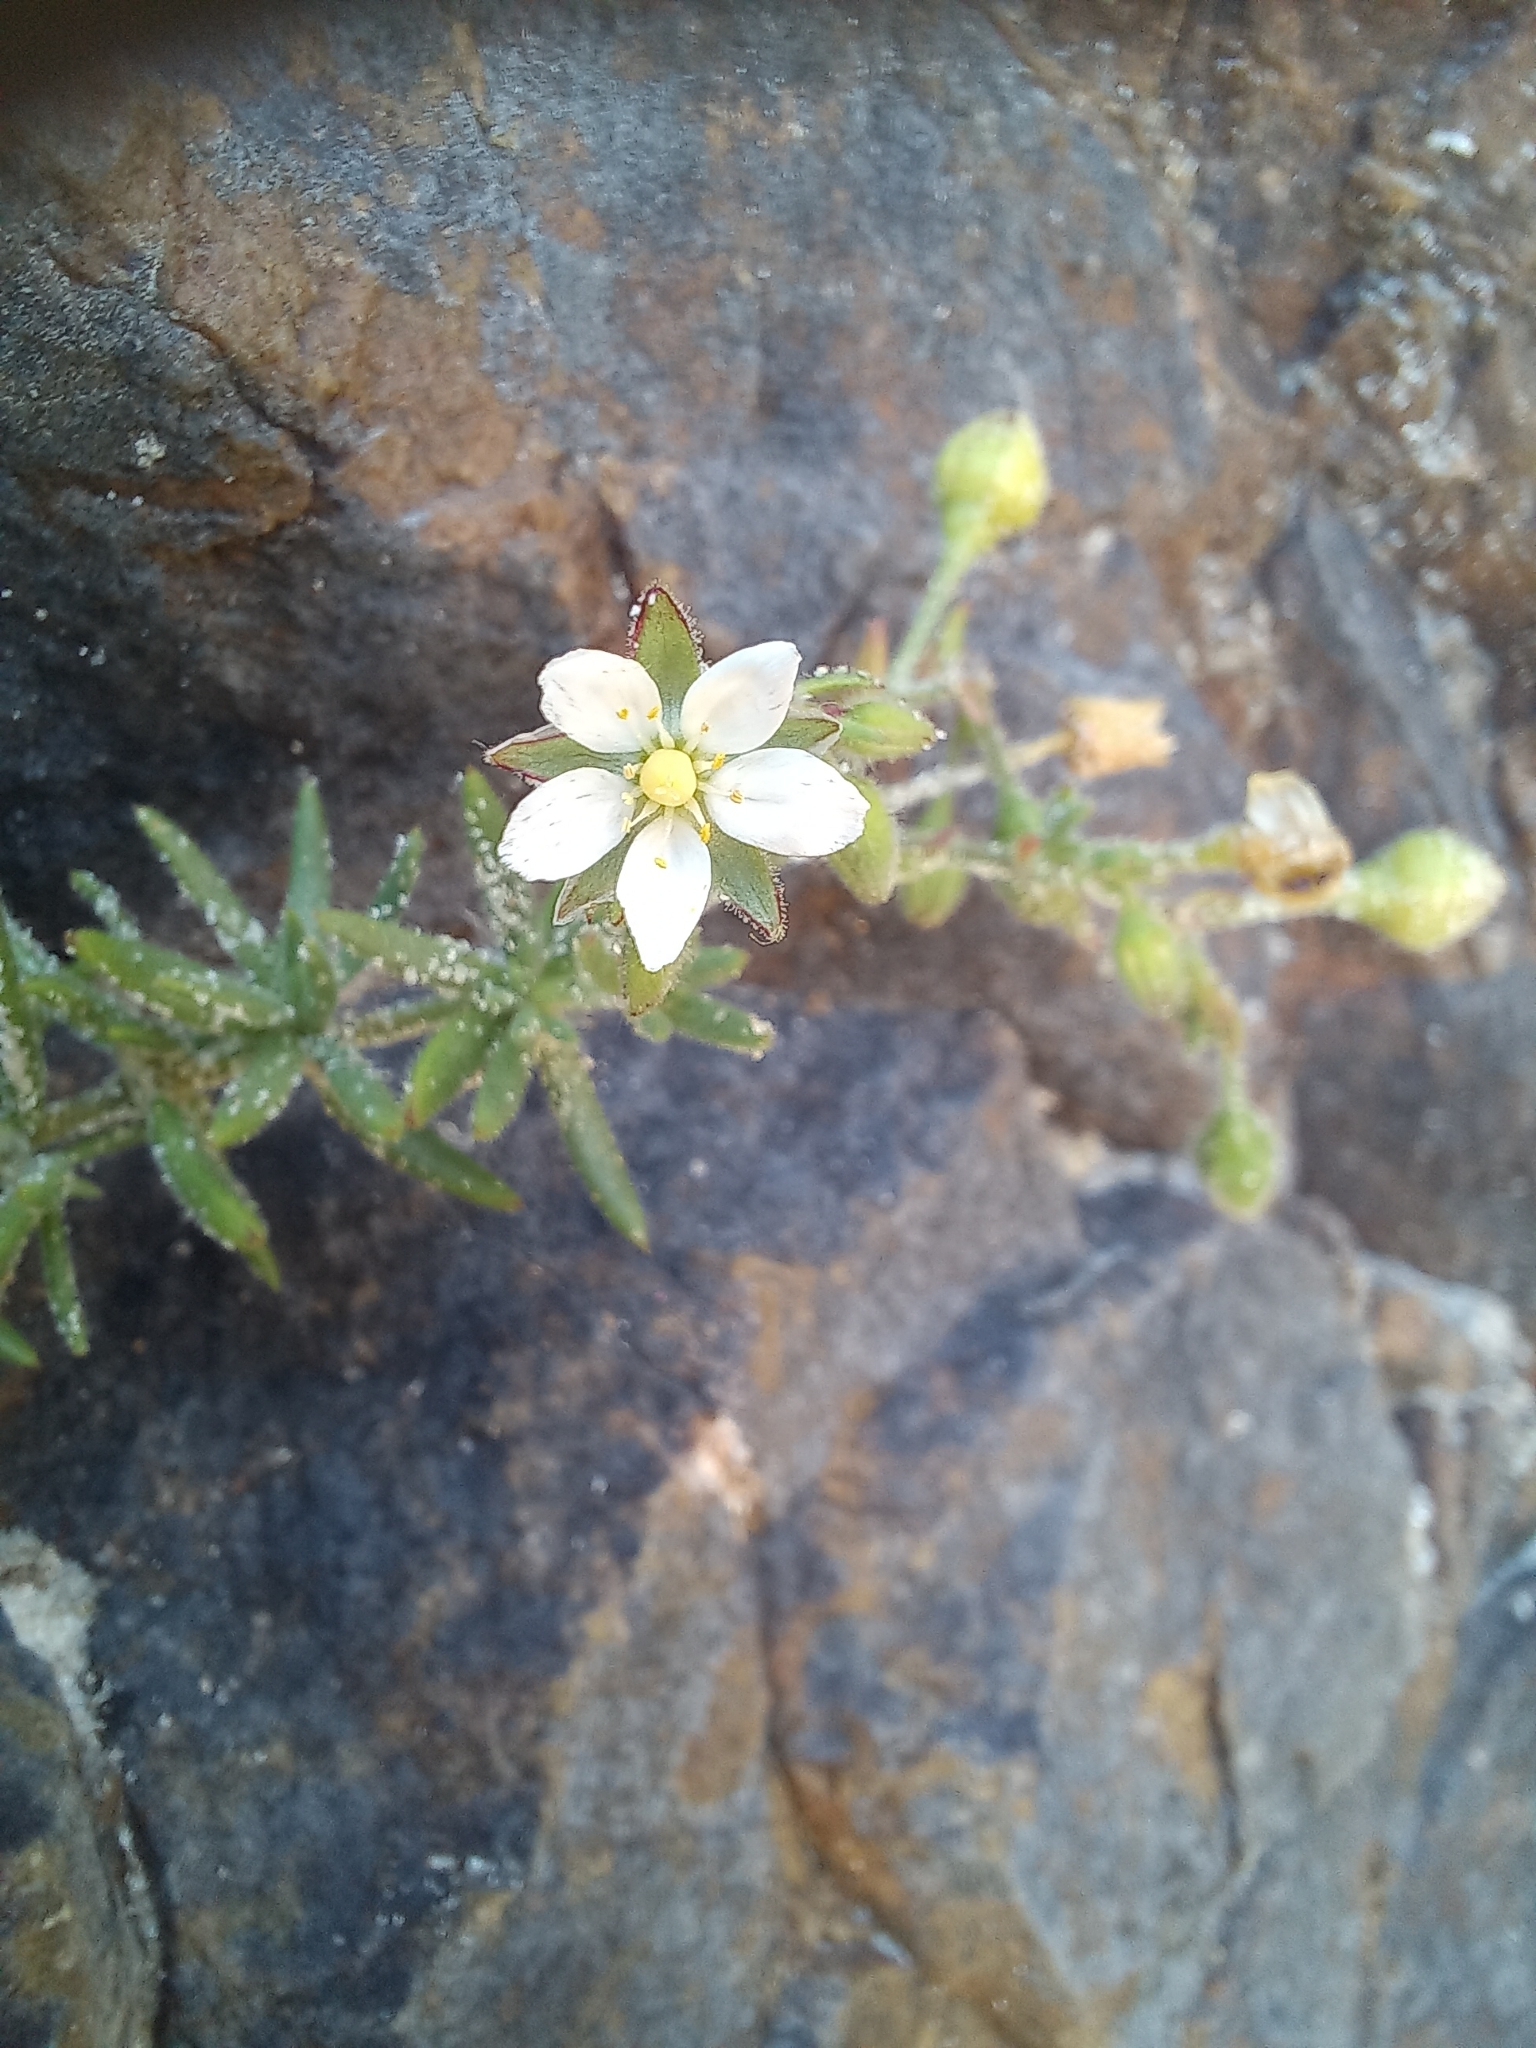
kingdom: Plantae
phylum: Tracheophyta
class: Magnoliopsida
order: Caryophyllales
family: Caryophyllaceae
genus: Spergularia
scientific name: Spergularia media
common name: Greater sea-spurrey
